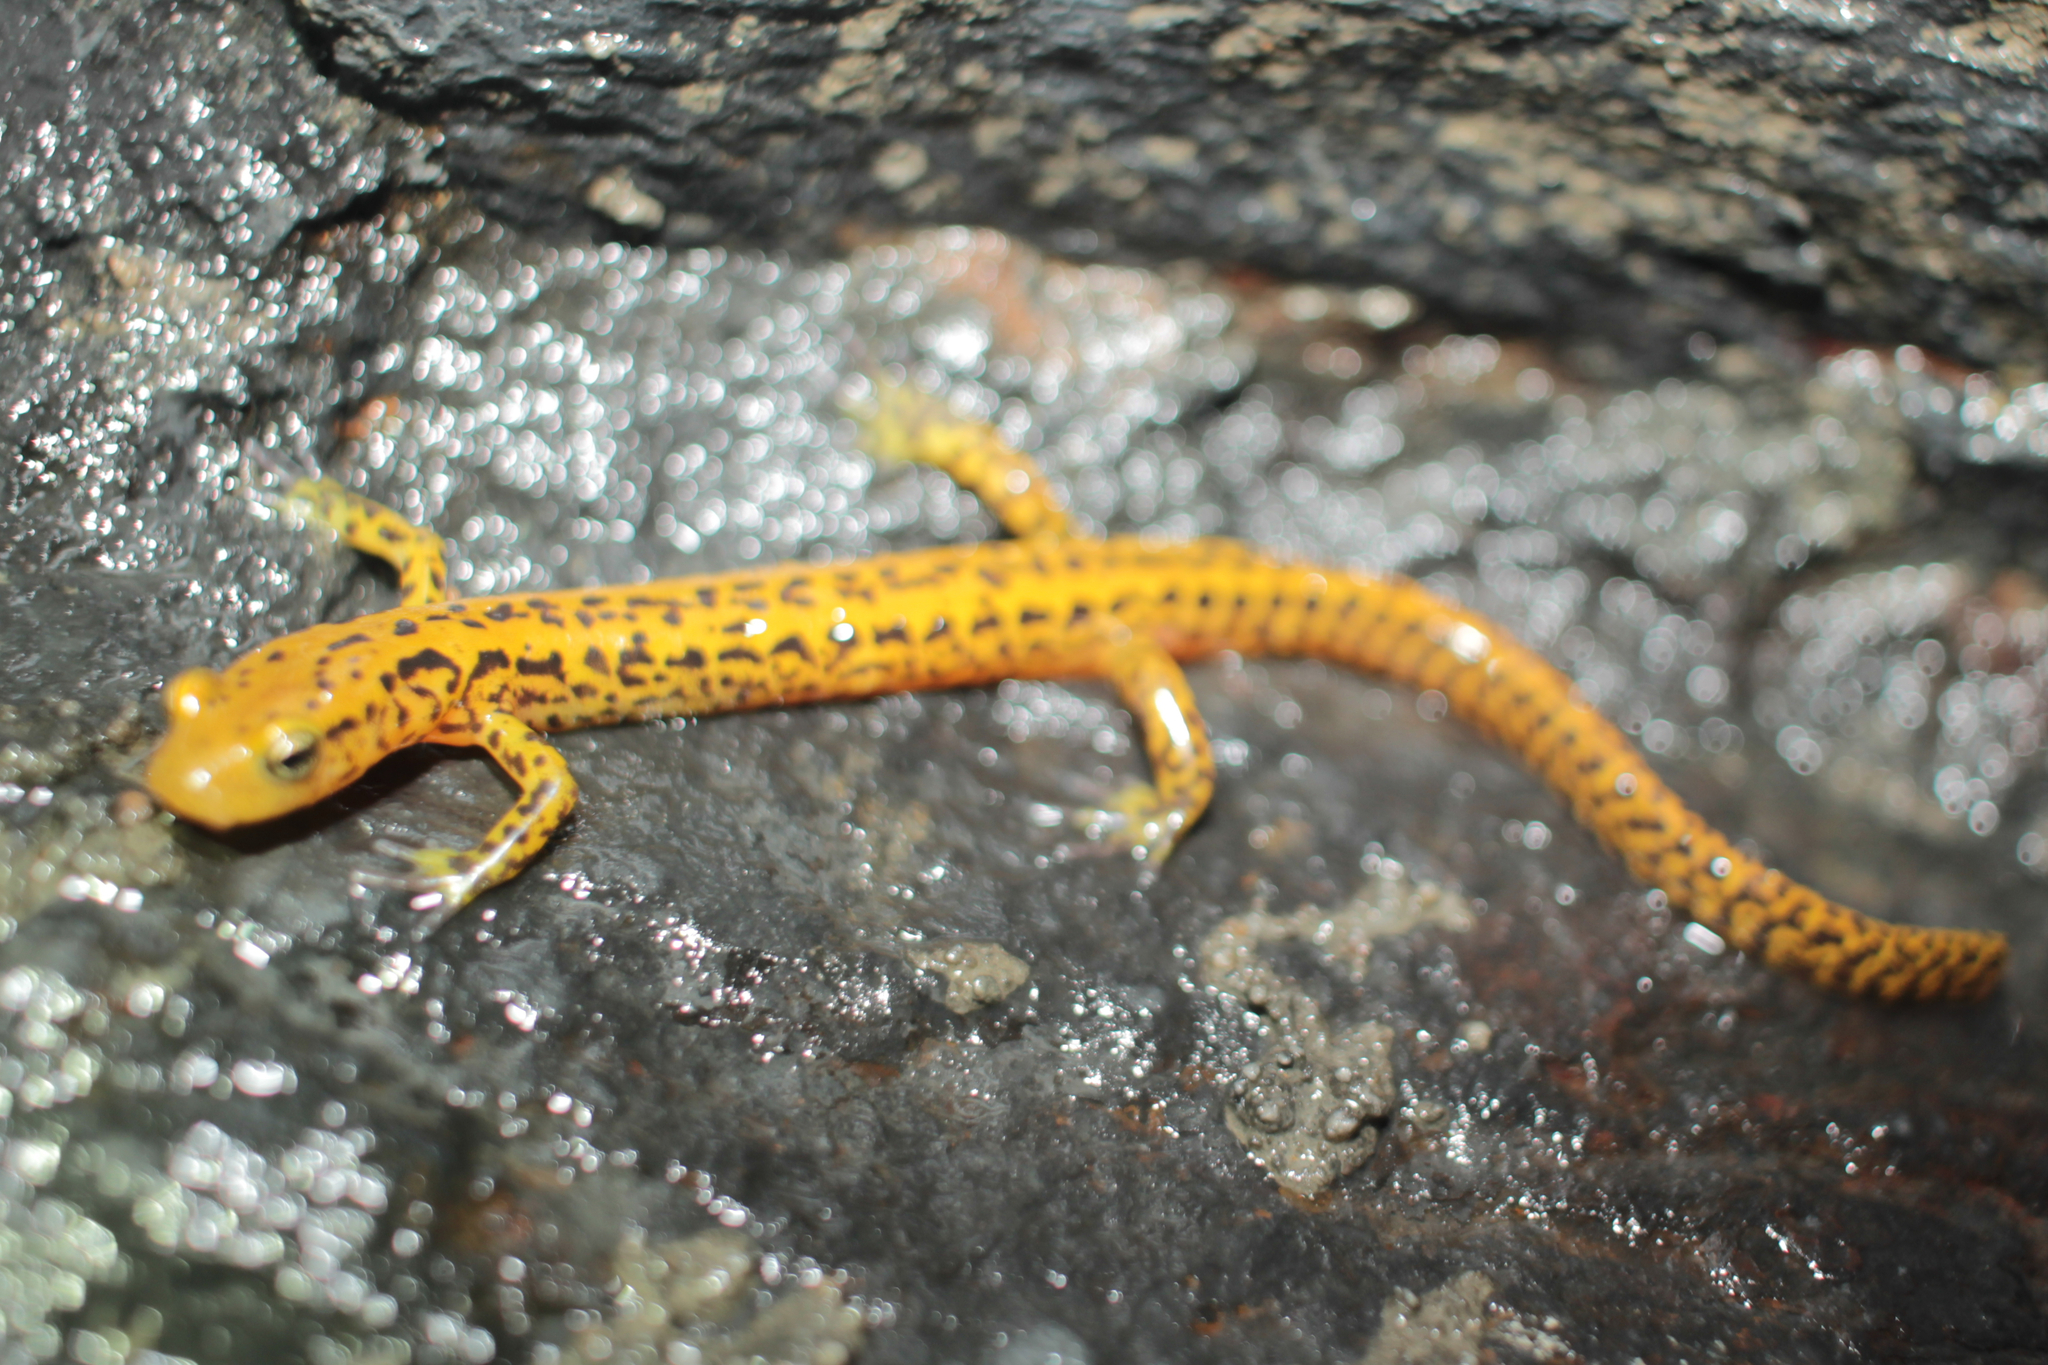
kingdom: Animalia
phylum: Chordata
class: Amphibia
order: Caudata
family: Plethodontidae
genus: Eurycea
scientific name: Eurycea longicauda
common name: Long-tailed salamander
